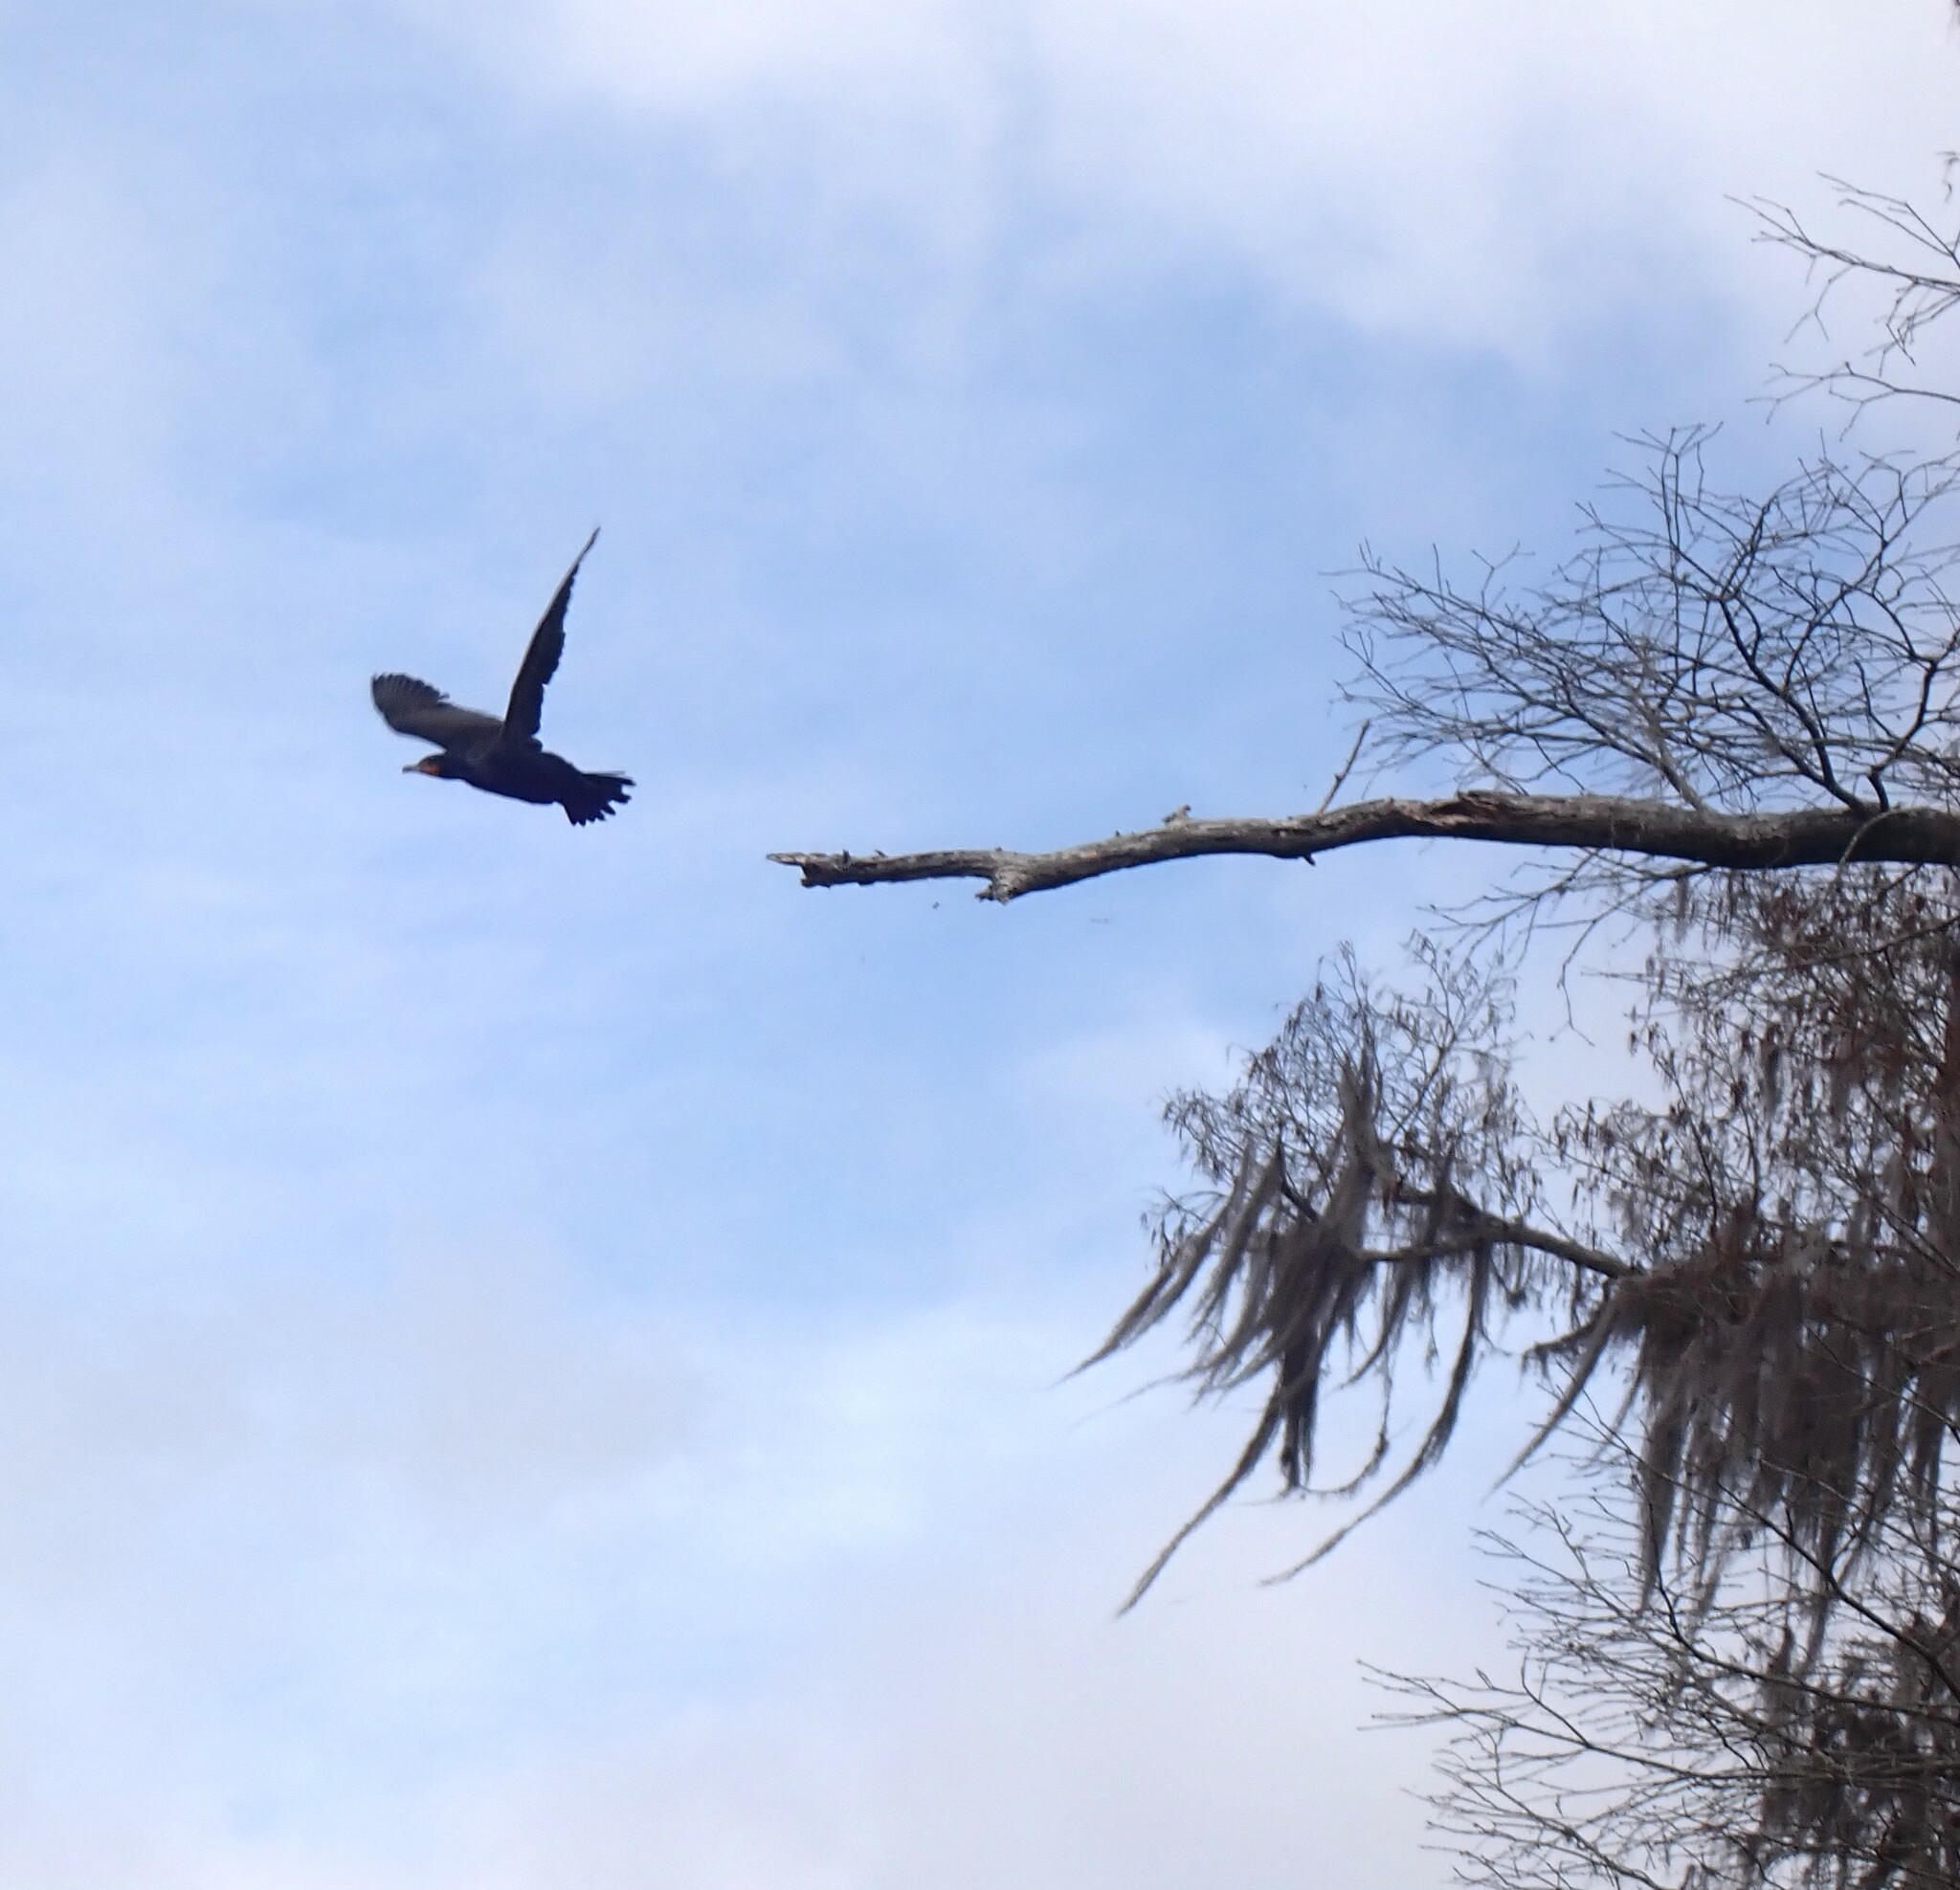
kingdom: Animalia
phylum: Chordata
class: Aves
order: Suliformes
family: Phalacrocoracidae
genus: Phalacrocorax
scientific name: Phalacrocorax auritus
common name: Double-crested cormorant
